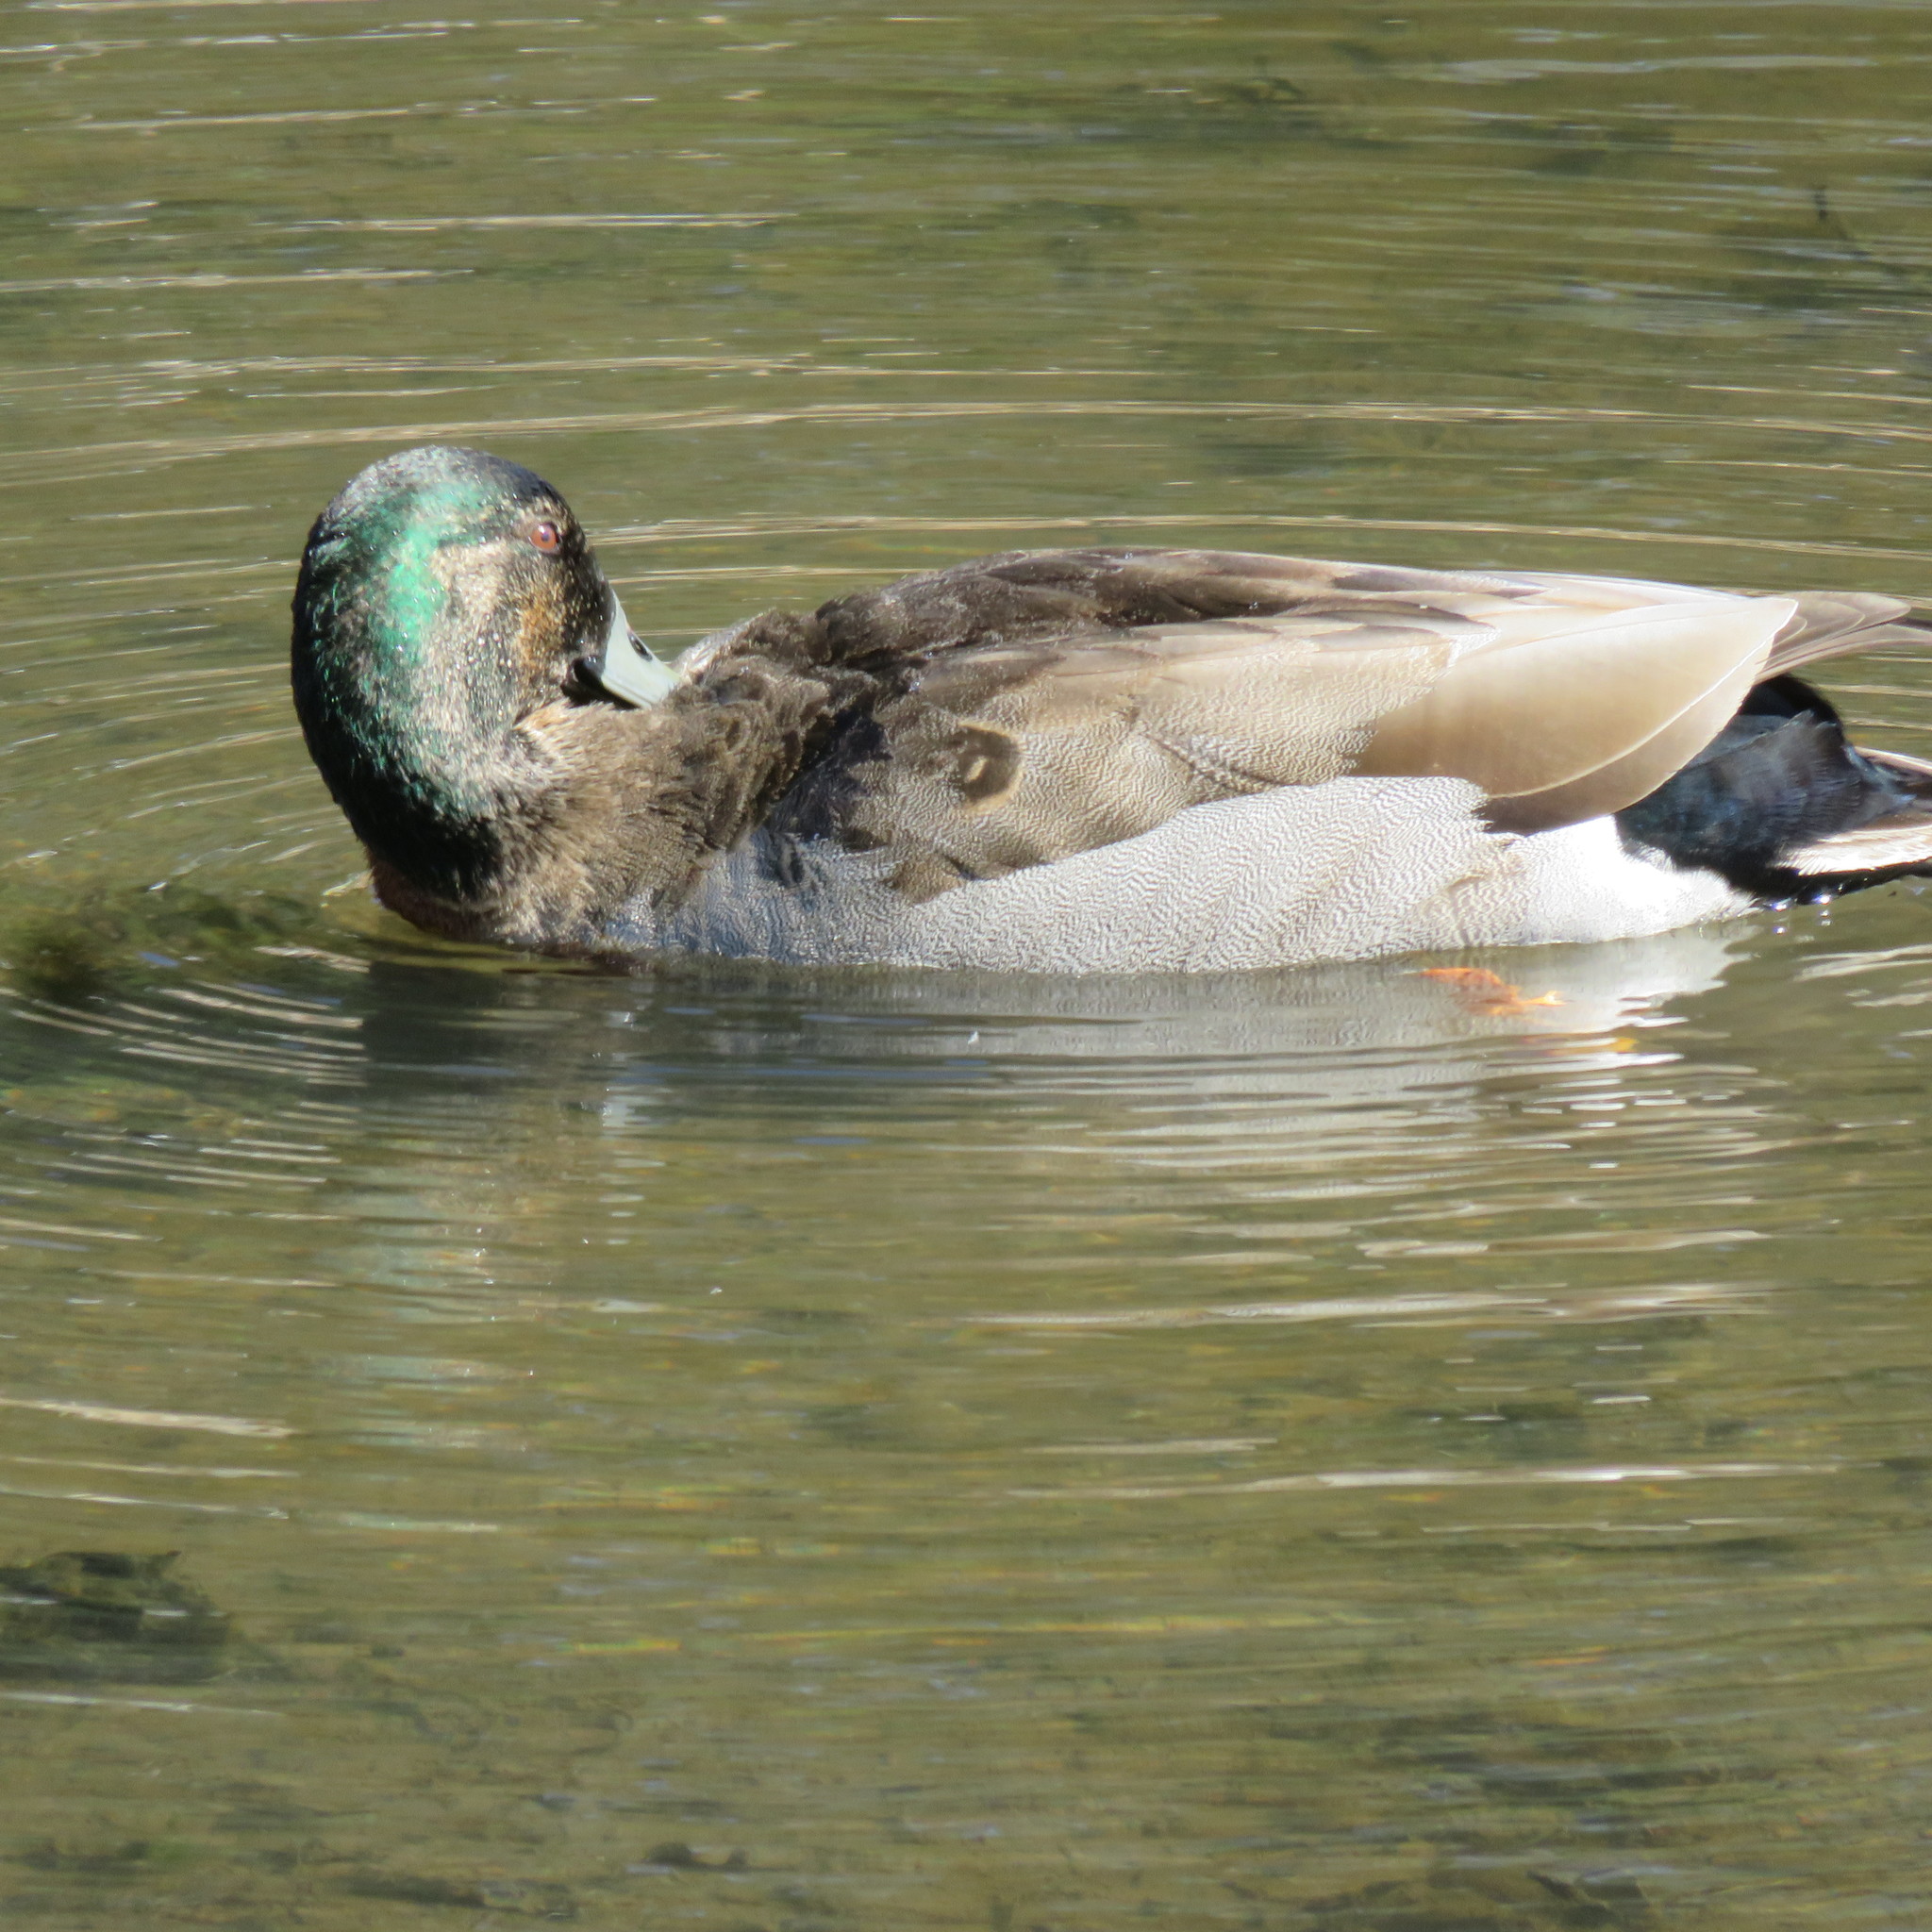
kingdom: Animalia
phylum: Chordata
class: Aves
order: Anseriformes
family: Anatidae
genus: Anas
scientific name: Anas platyrhynchos
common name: Mallard
